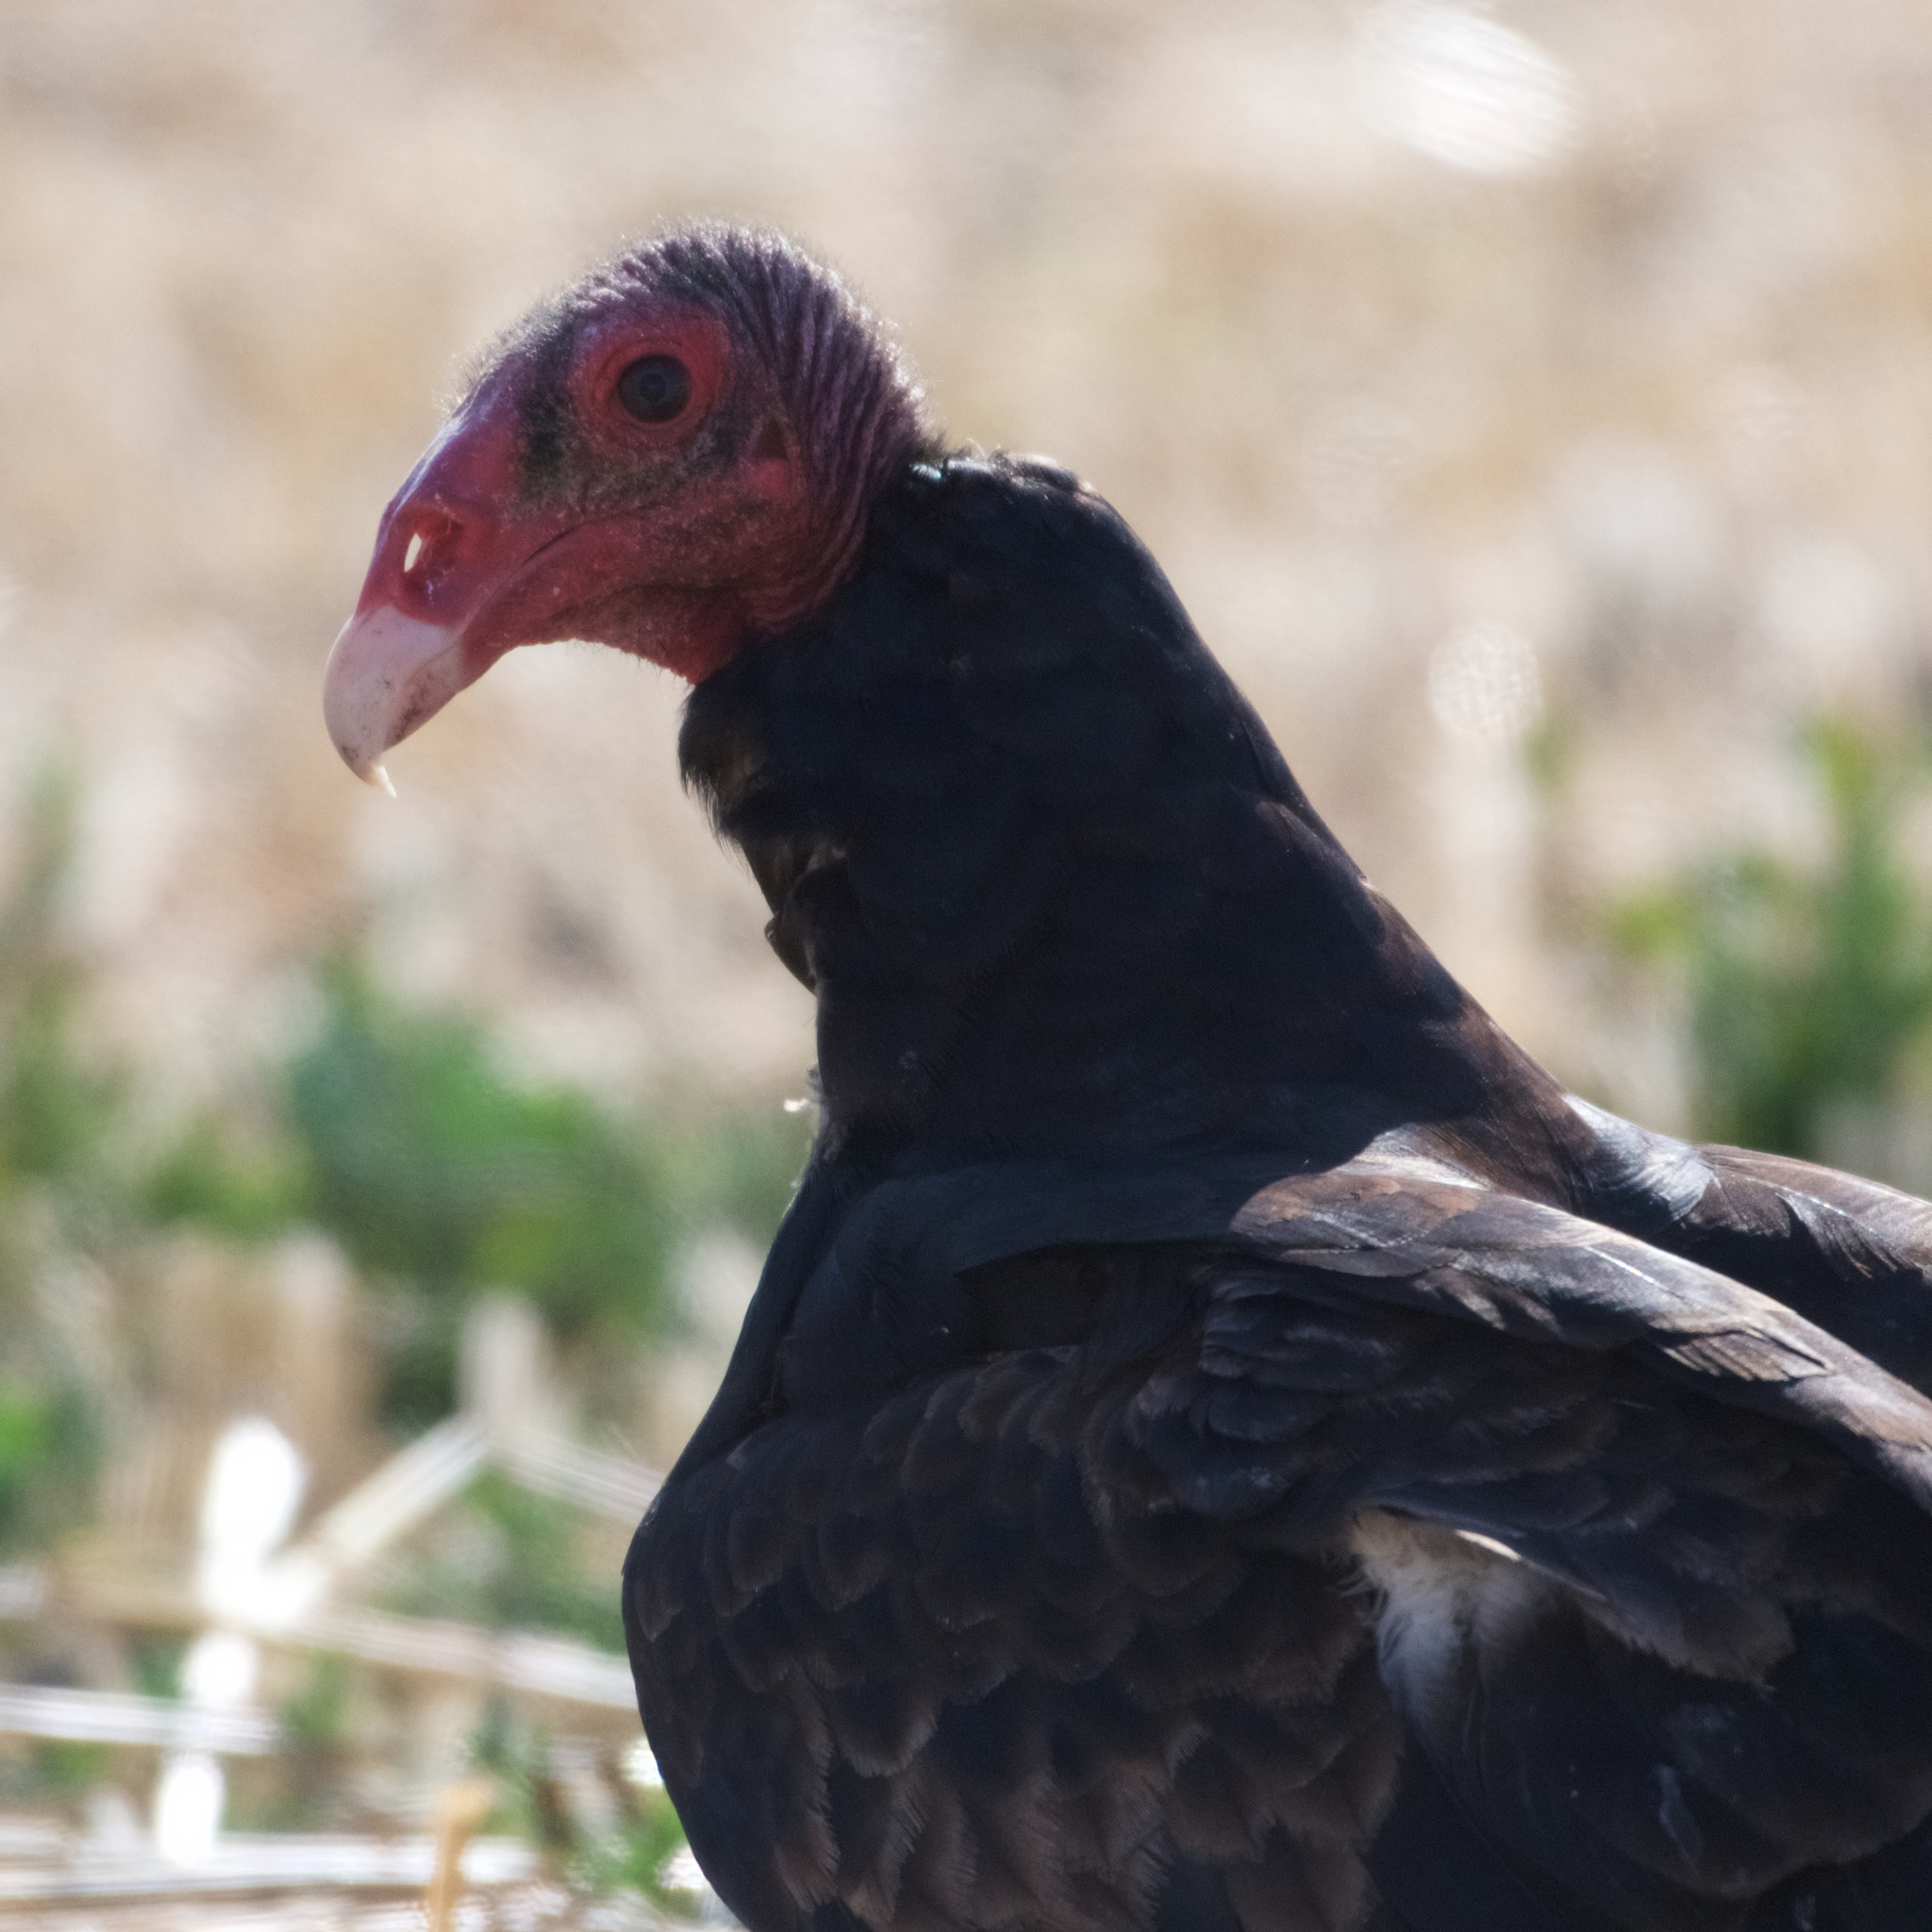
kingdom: Animalia
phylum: Chordata
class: Aves
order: Accipitriformes
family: Cathartidae
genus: Cathartes
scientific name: Cathartes aura
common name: Turkey vulture
